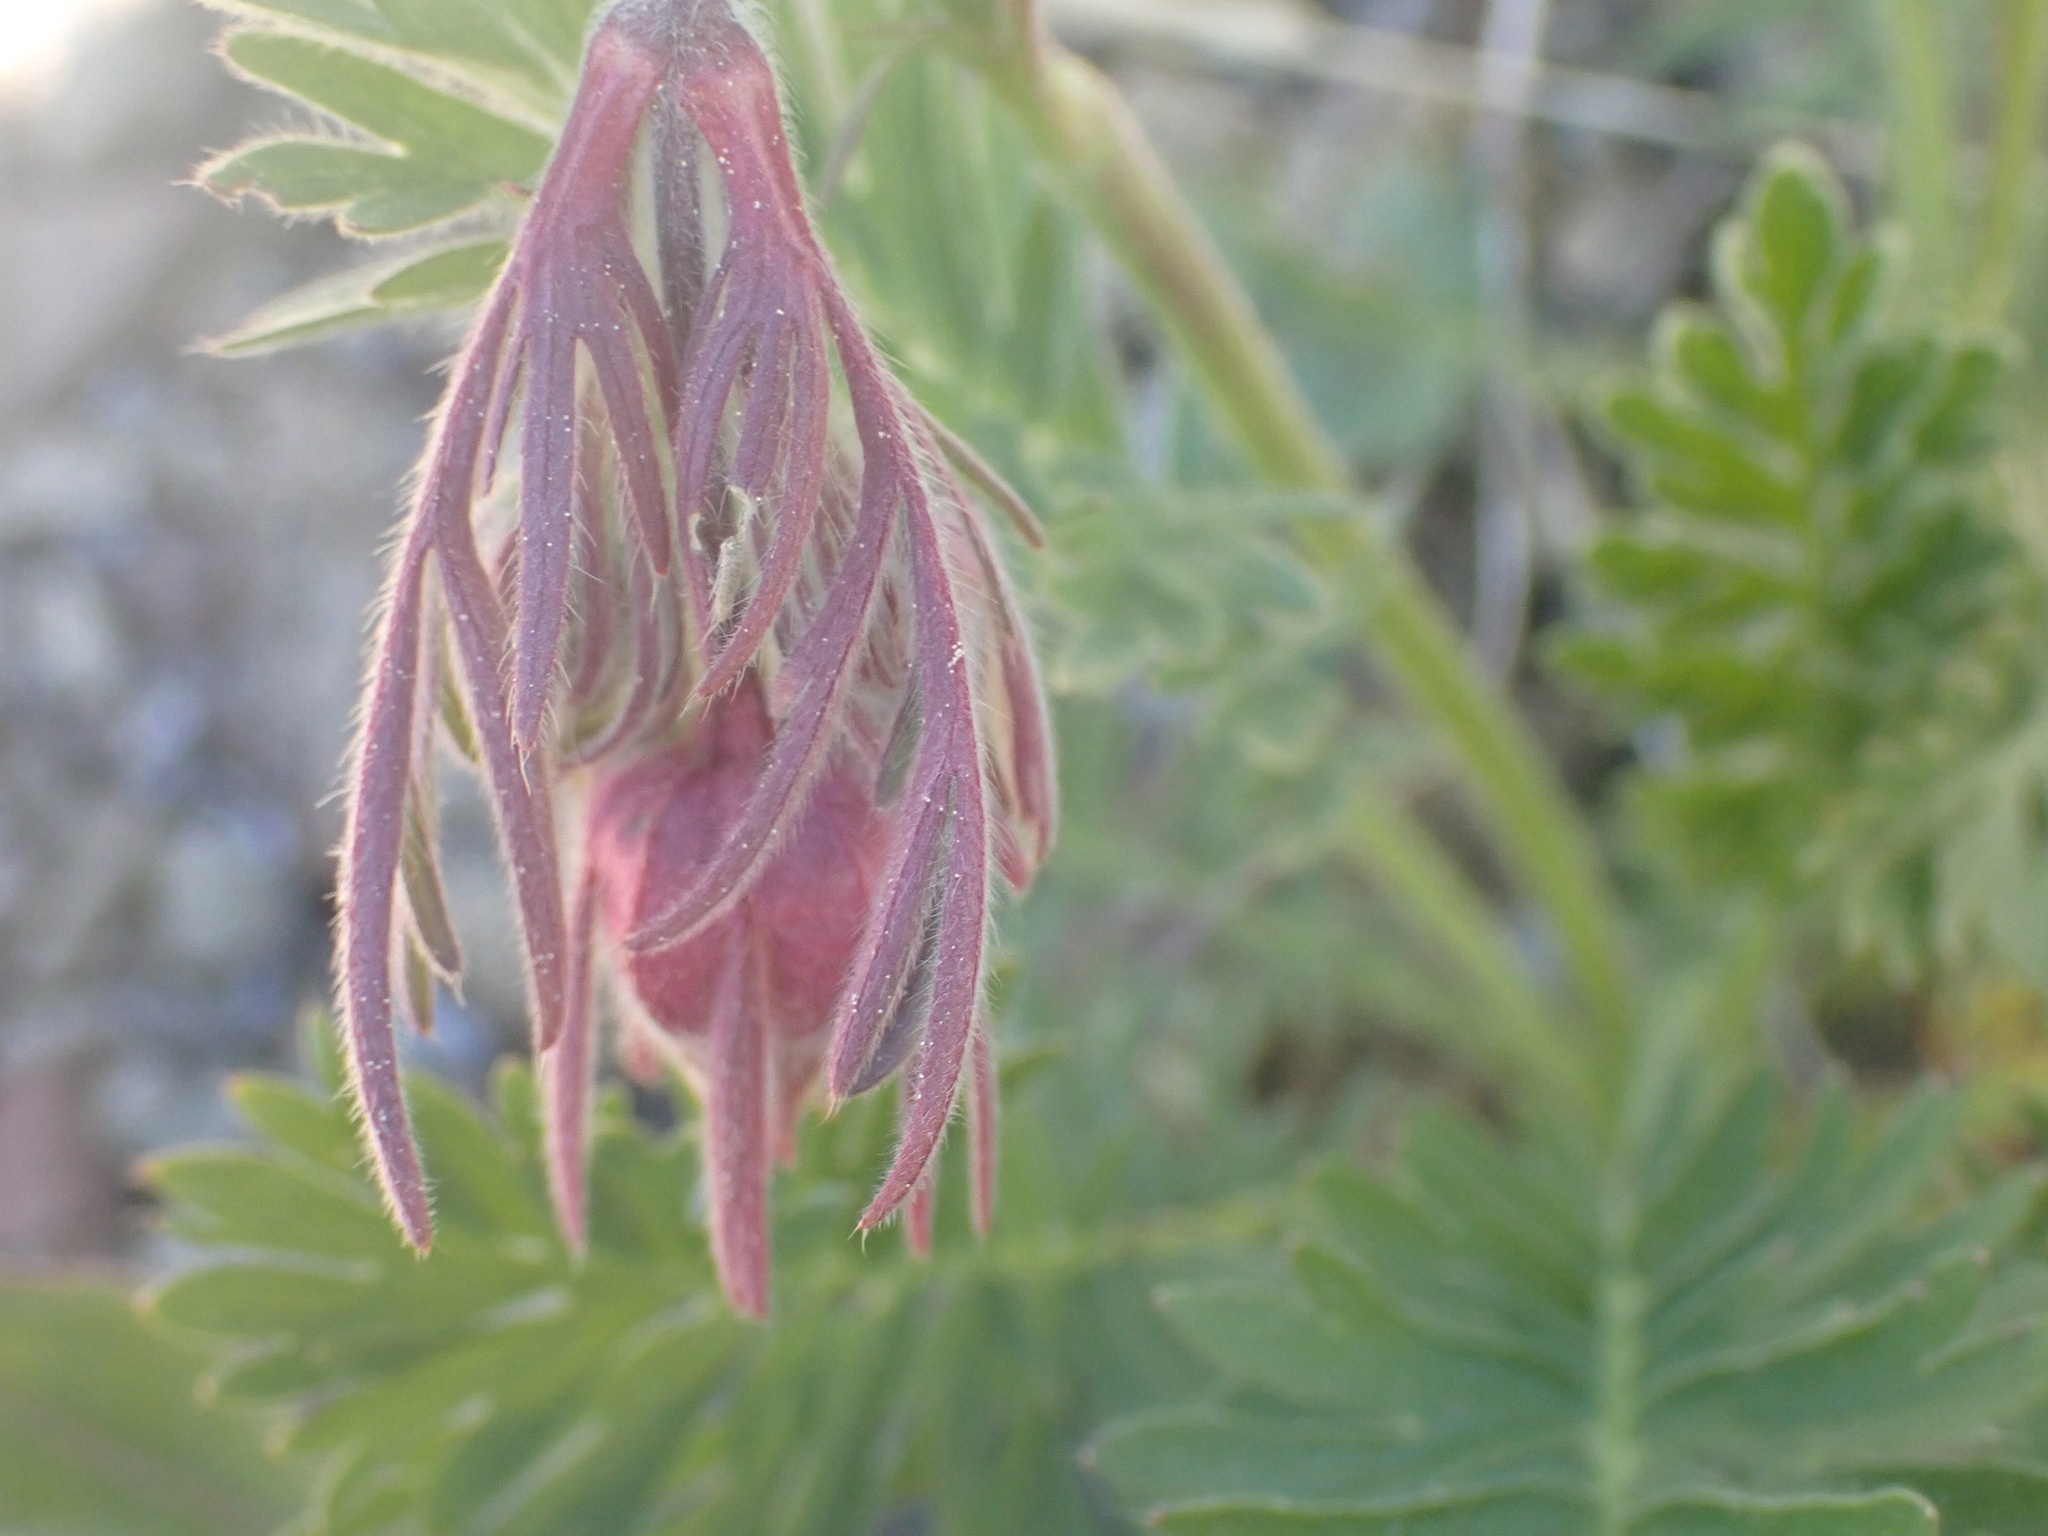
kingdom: Plantae
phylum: Tracheophyta
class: Magnoliopsida
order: Rosales
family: Rosaceae
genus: Geum
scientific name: Geum triflorum
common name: Old man's whiskers
